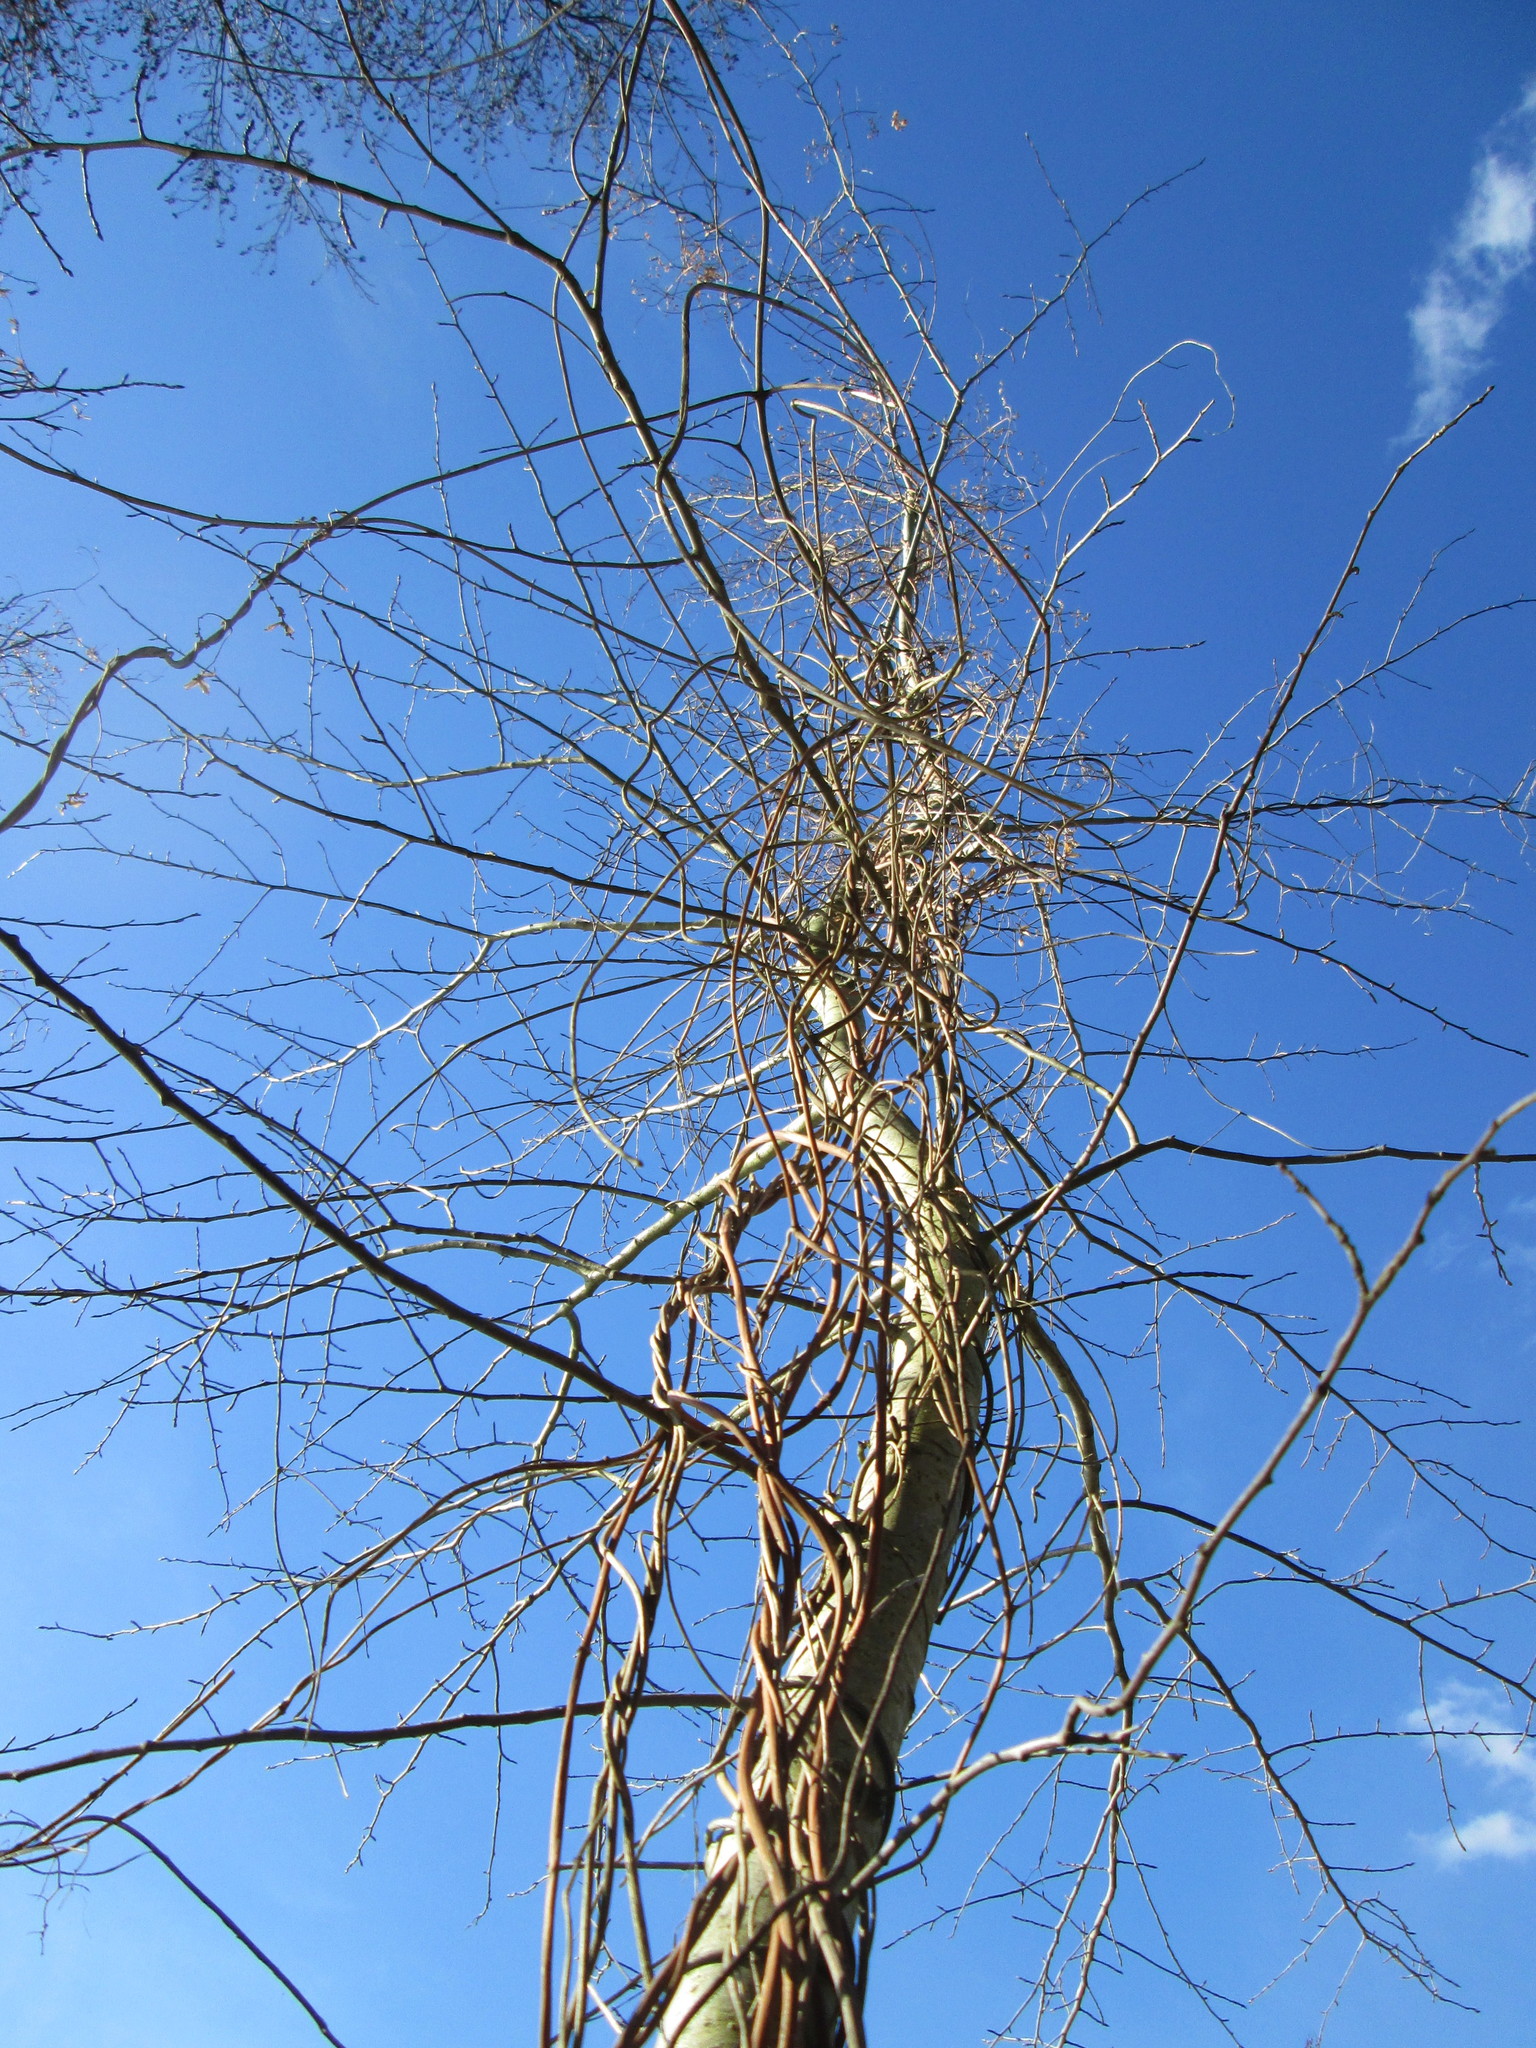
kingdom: Plantae
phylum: Tracheophyta
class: Magnoliopsida
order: Rosales
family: Cannabaceae
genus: Humulus
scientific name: Humulus lupulus
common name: Hop
